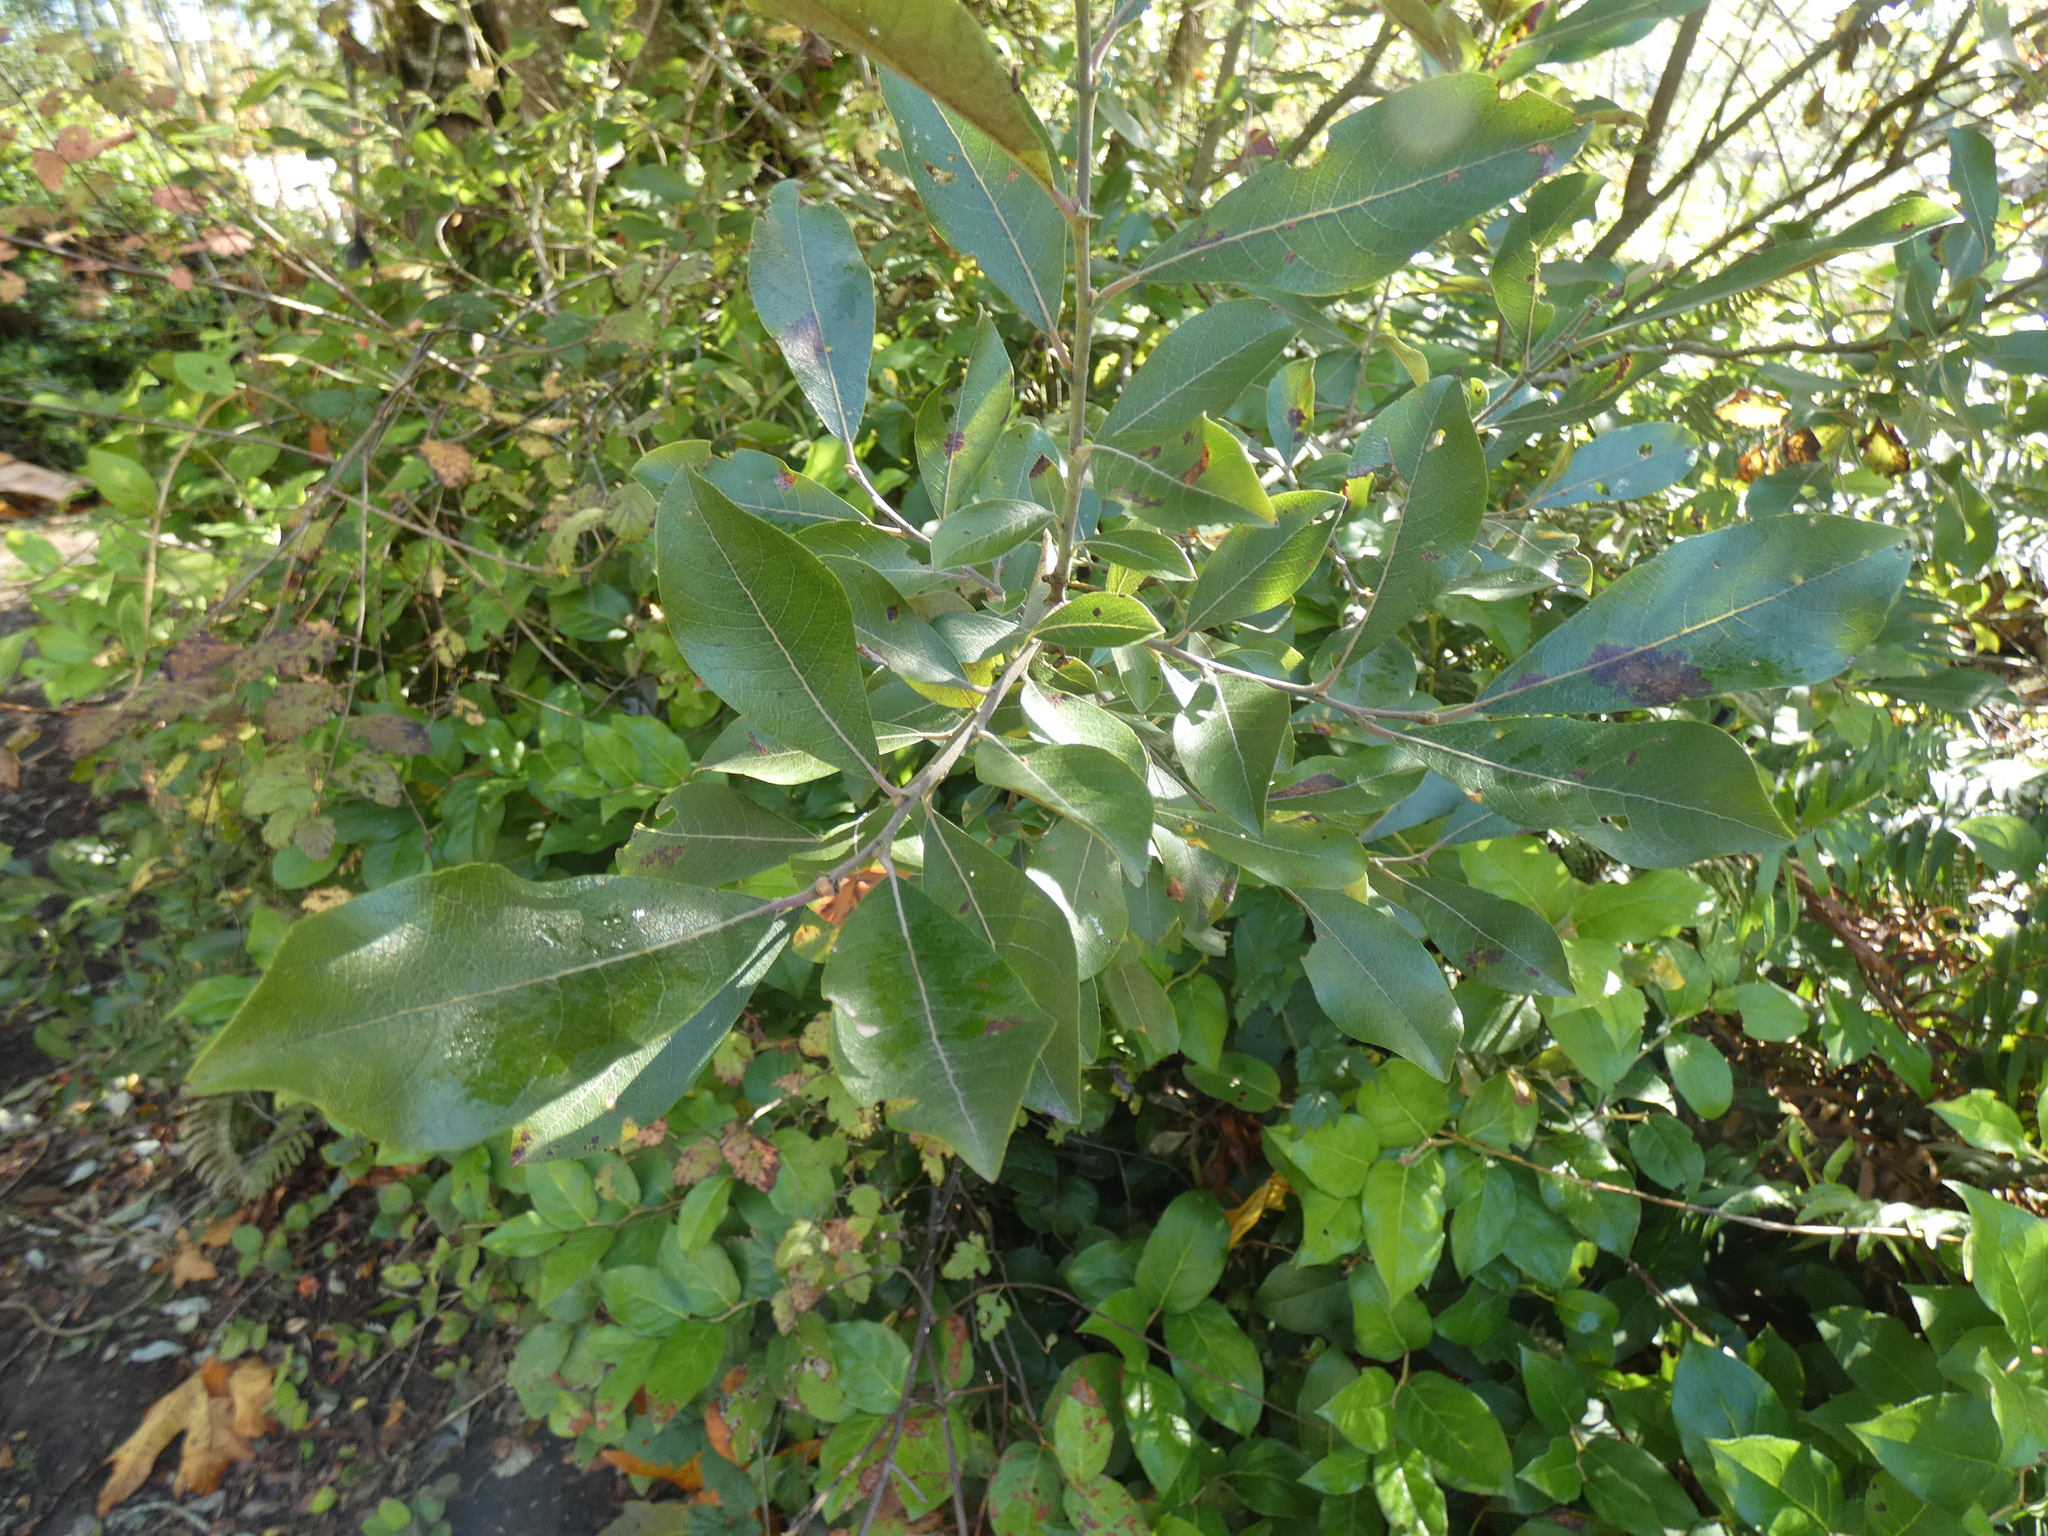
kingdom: Plantae
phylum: Tracheophyta
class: Magnoliopsida
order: Malpighiales
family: Salicaceae
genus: Salix
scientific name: Salix scouleriana
